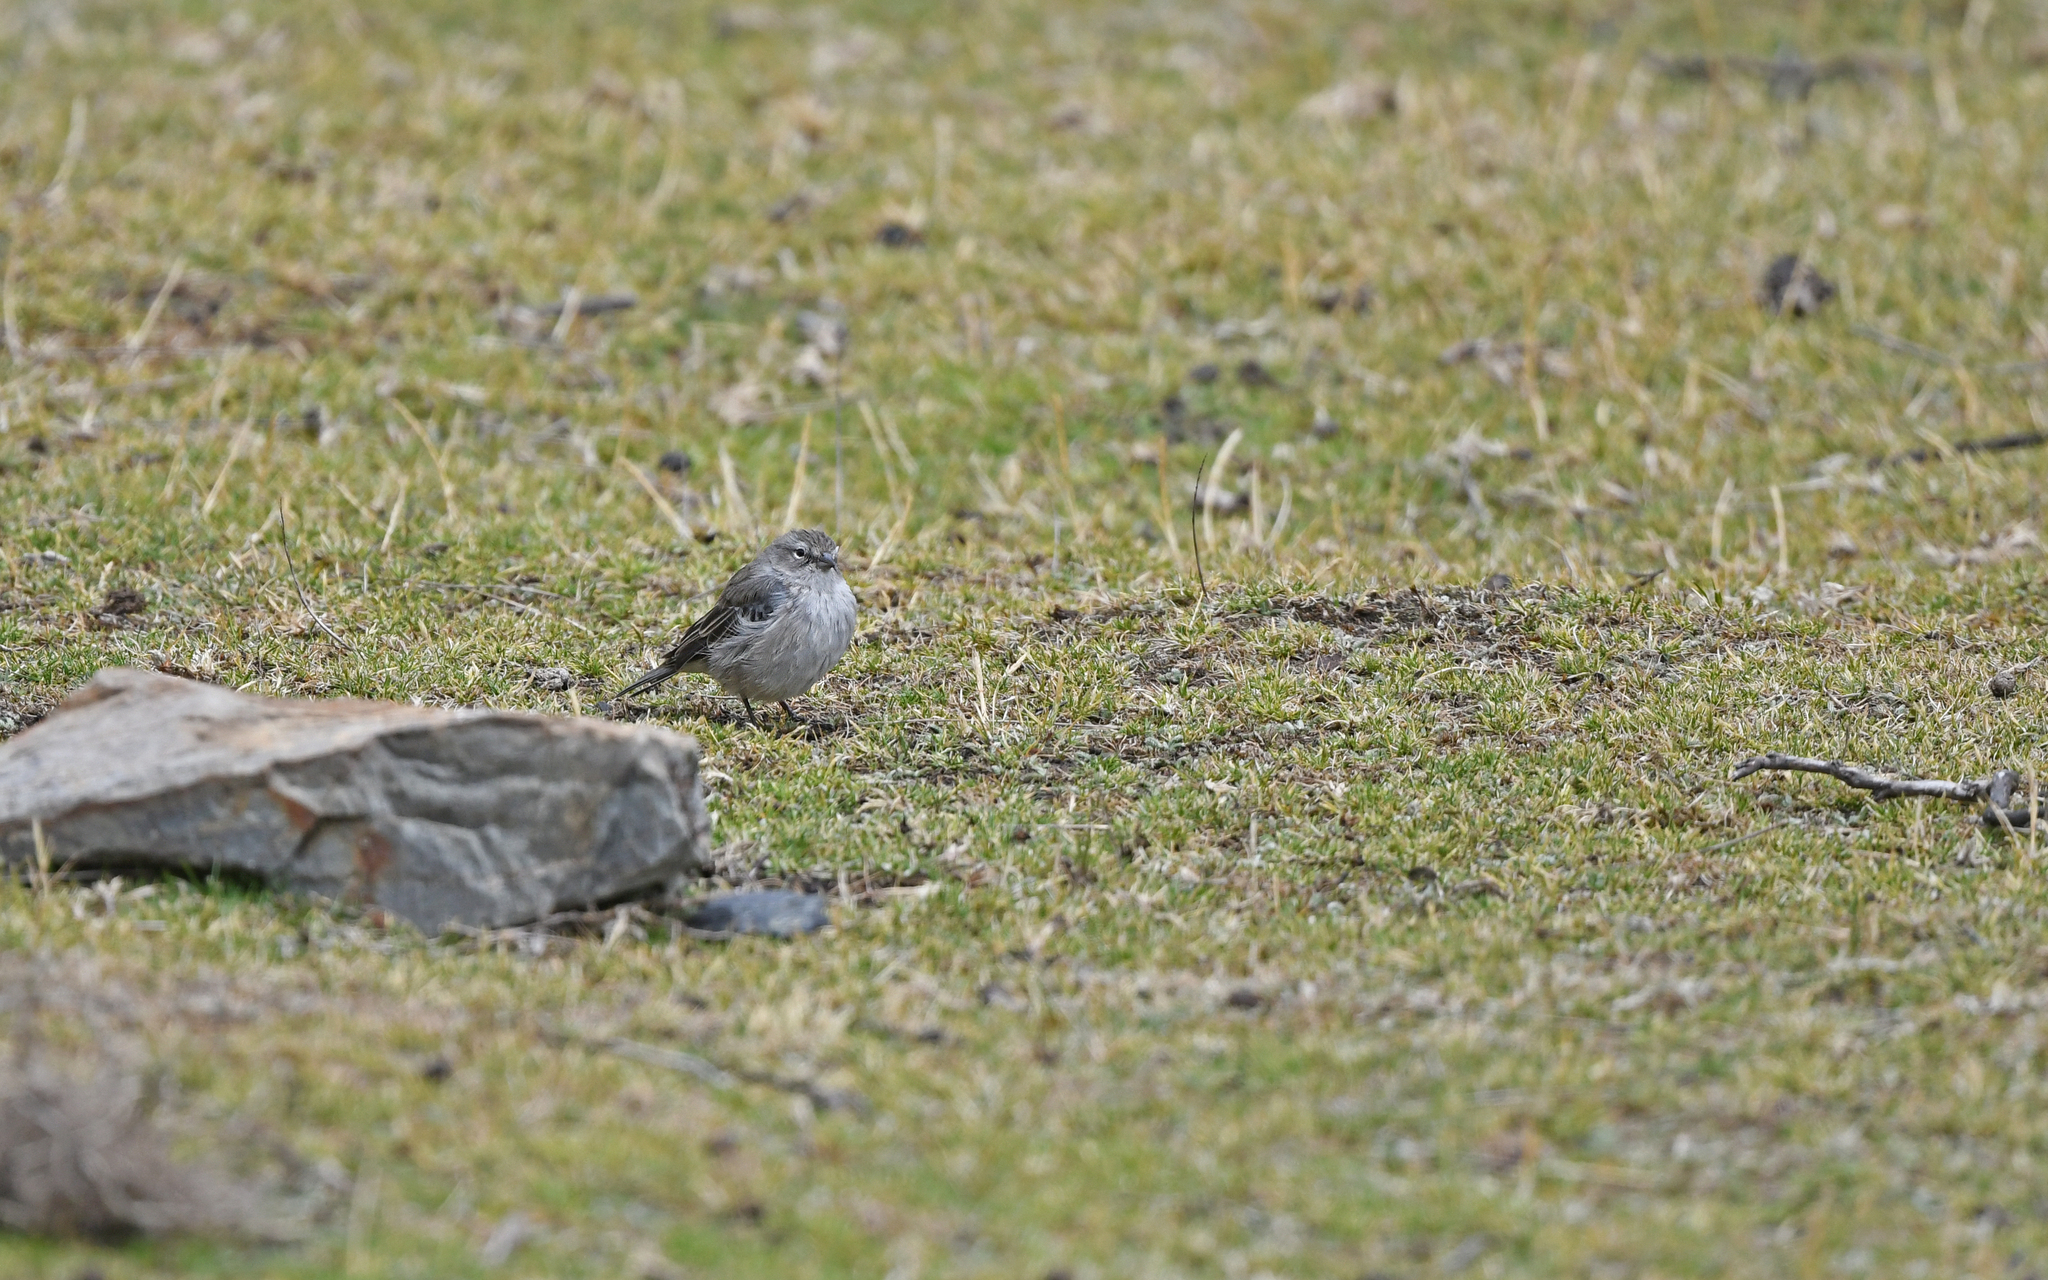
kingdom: Animalia
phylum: Chordata
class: Aves
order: Passeriformes
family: Thraupidae
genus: Geospizopsis
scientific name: Geospizopsis plebejus
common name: Ash-breasted sierra-finch
